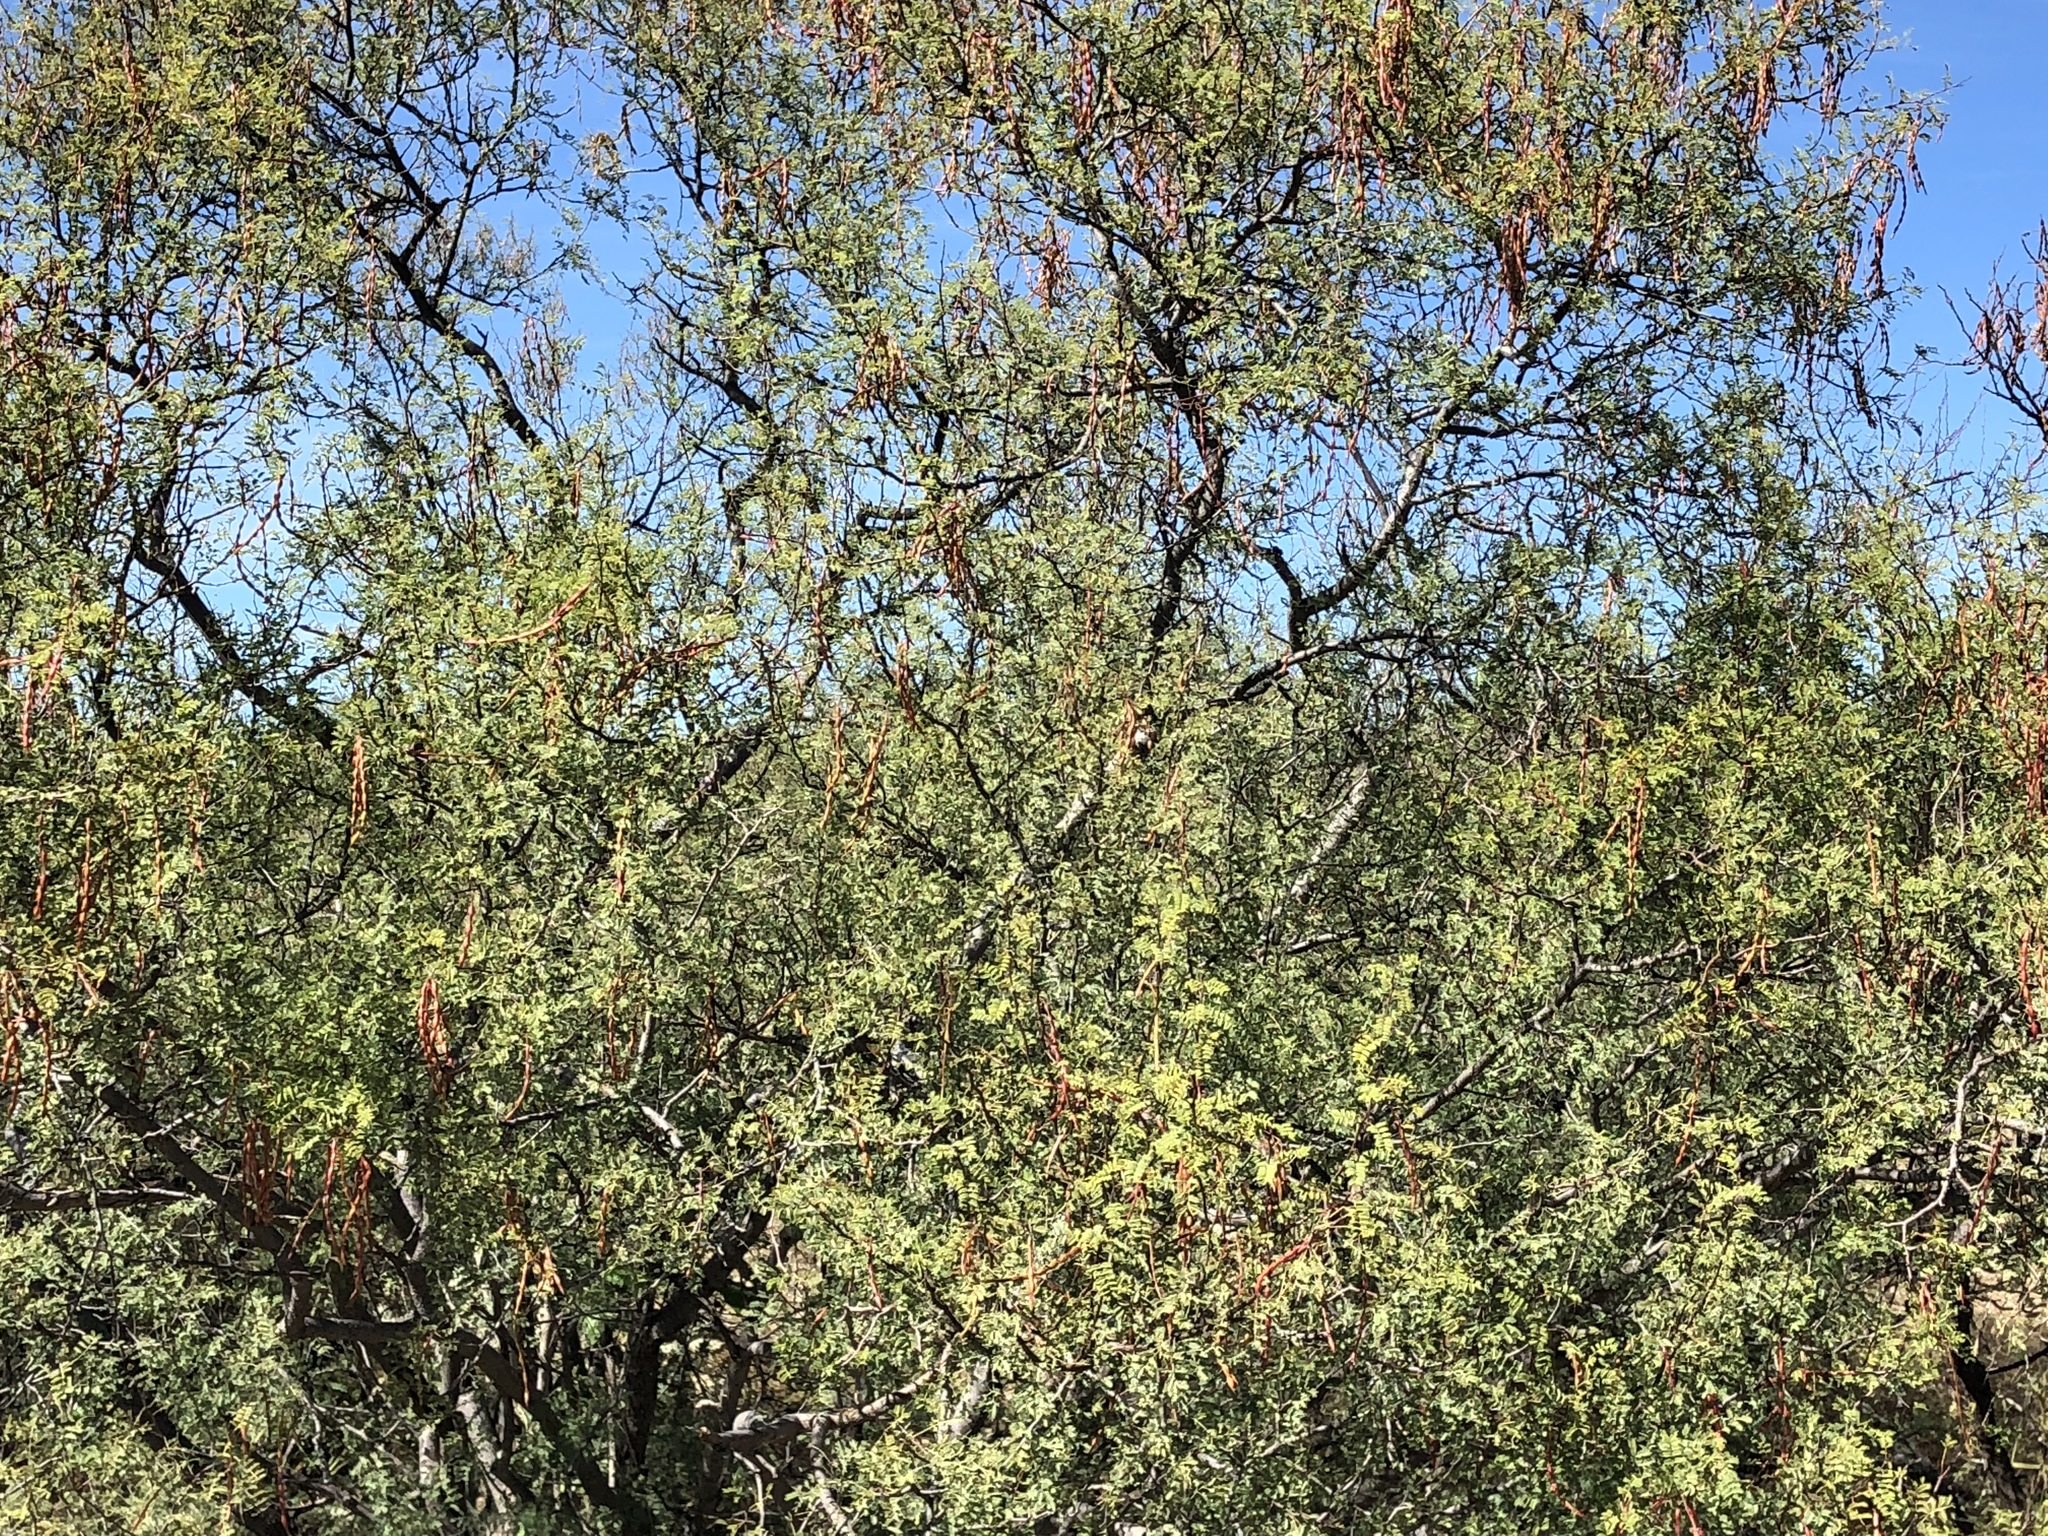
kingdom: Plantae
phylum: Tracheophyta
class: Magnoliopsida
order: Fabales
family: Fabaceae
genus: Vachellia
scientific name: Vachellia constricta
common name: Mescat acacia
